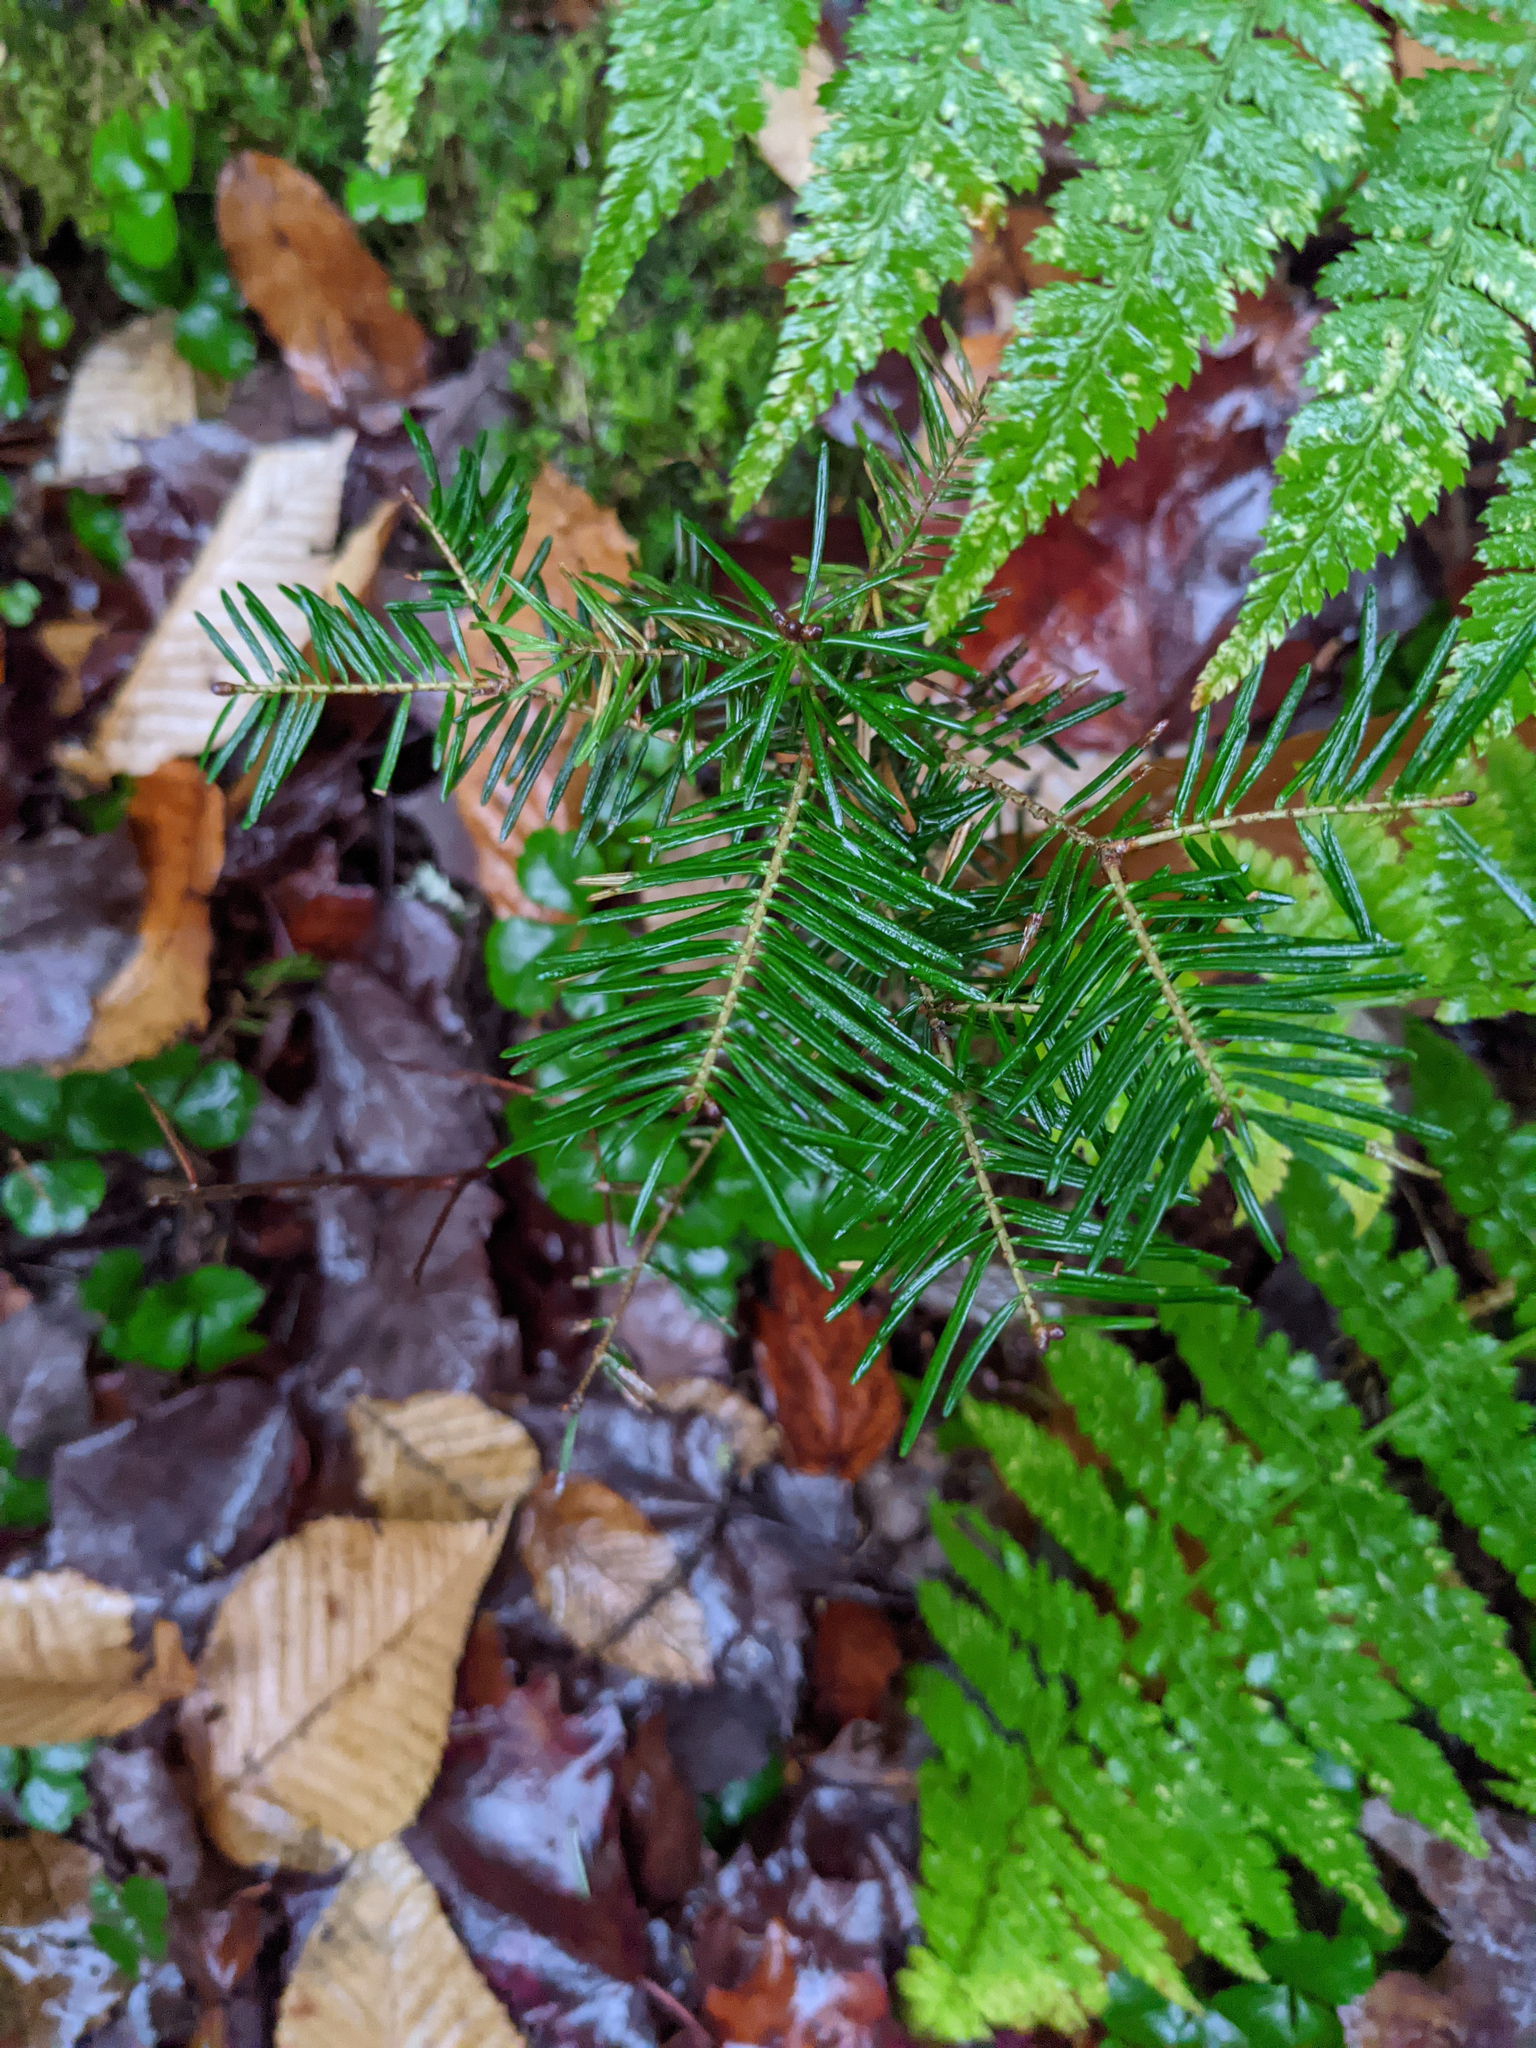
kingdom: Plantae
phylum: Tracheophyta
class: Pinopsida
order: Pinales
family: Pinaceae
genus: Abies
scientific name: Abies balsamea
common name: Balsam fir
